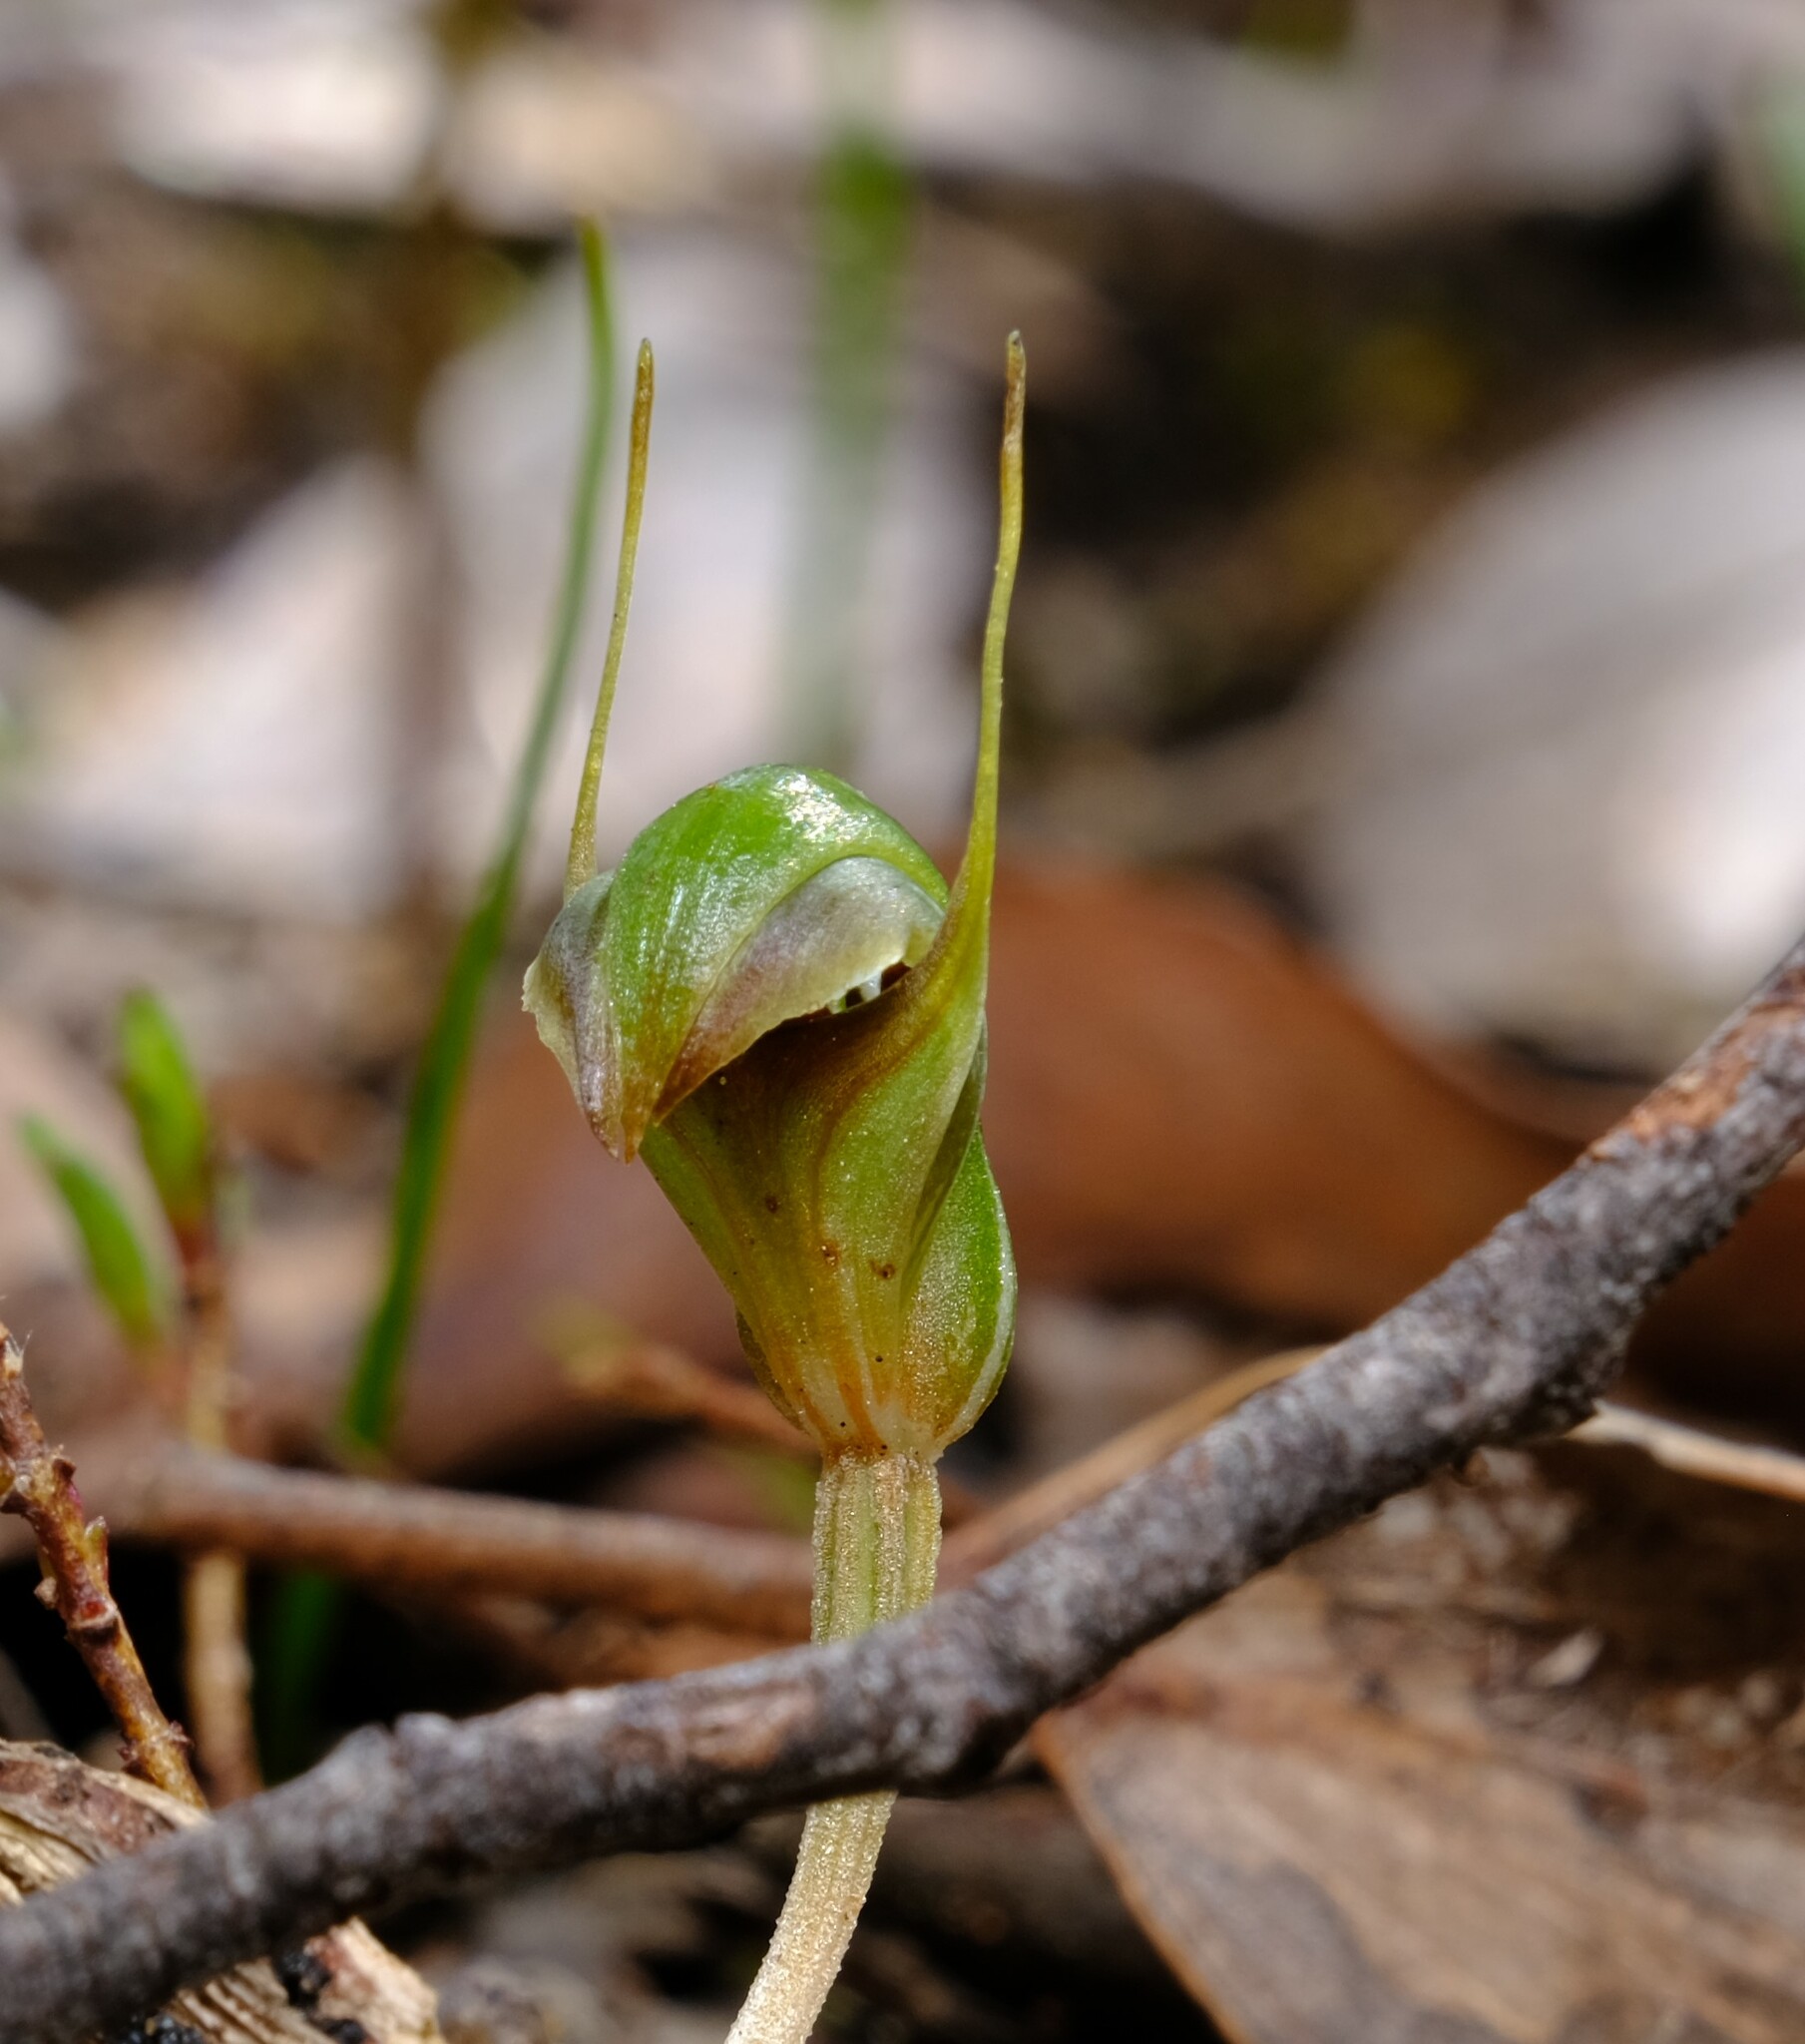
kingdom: Plantae
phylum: Tracheophyta
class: Liliopsida
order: Asparagales
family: Orchidaceae
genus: Pterostylis
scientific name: Pterostylis concinna
